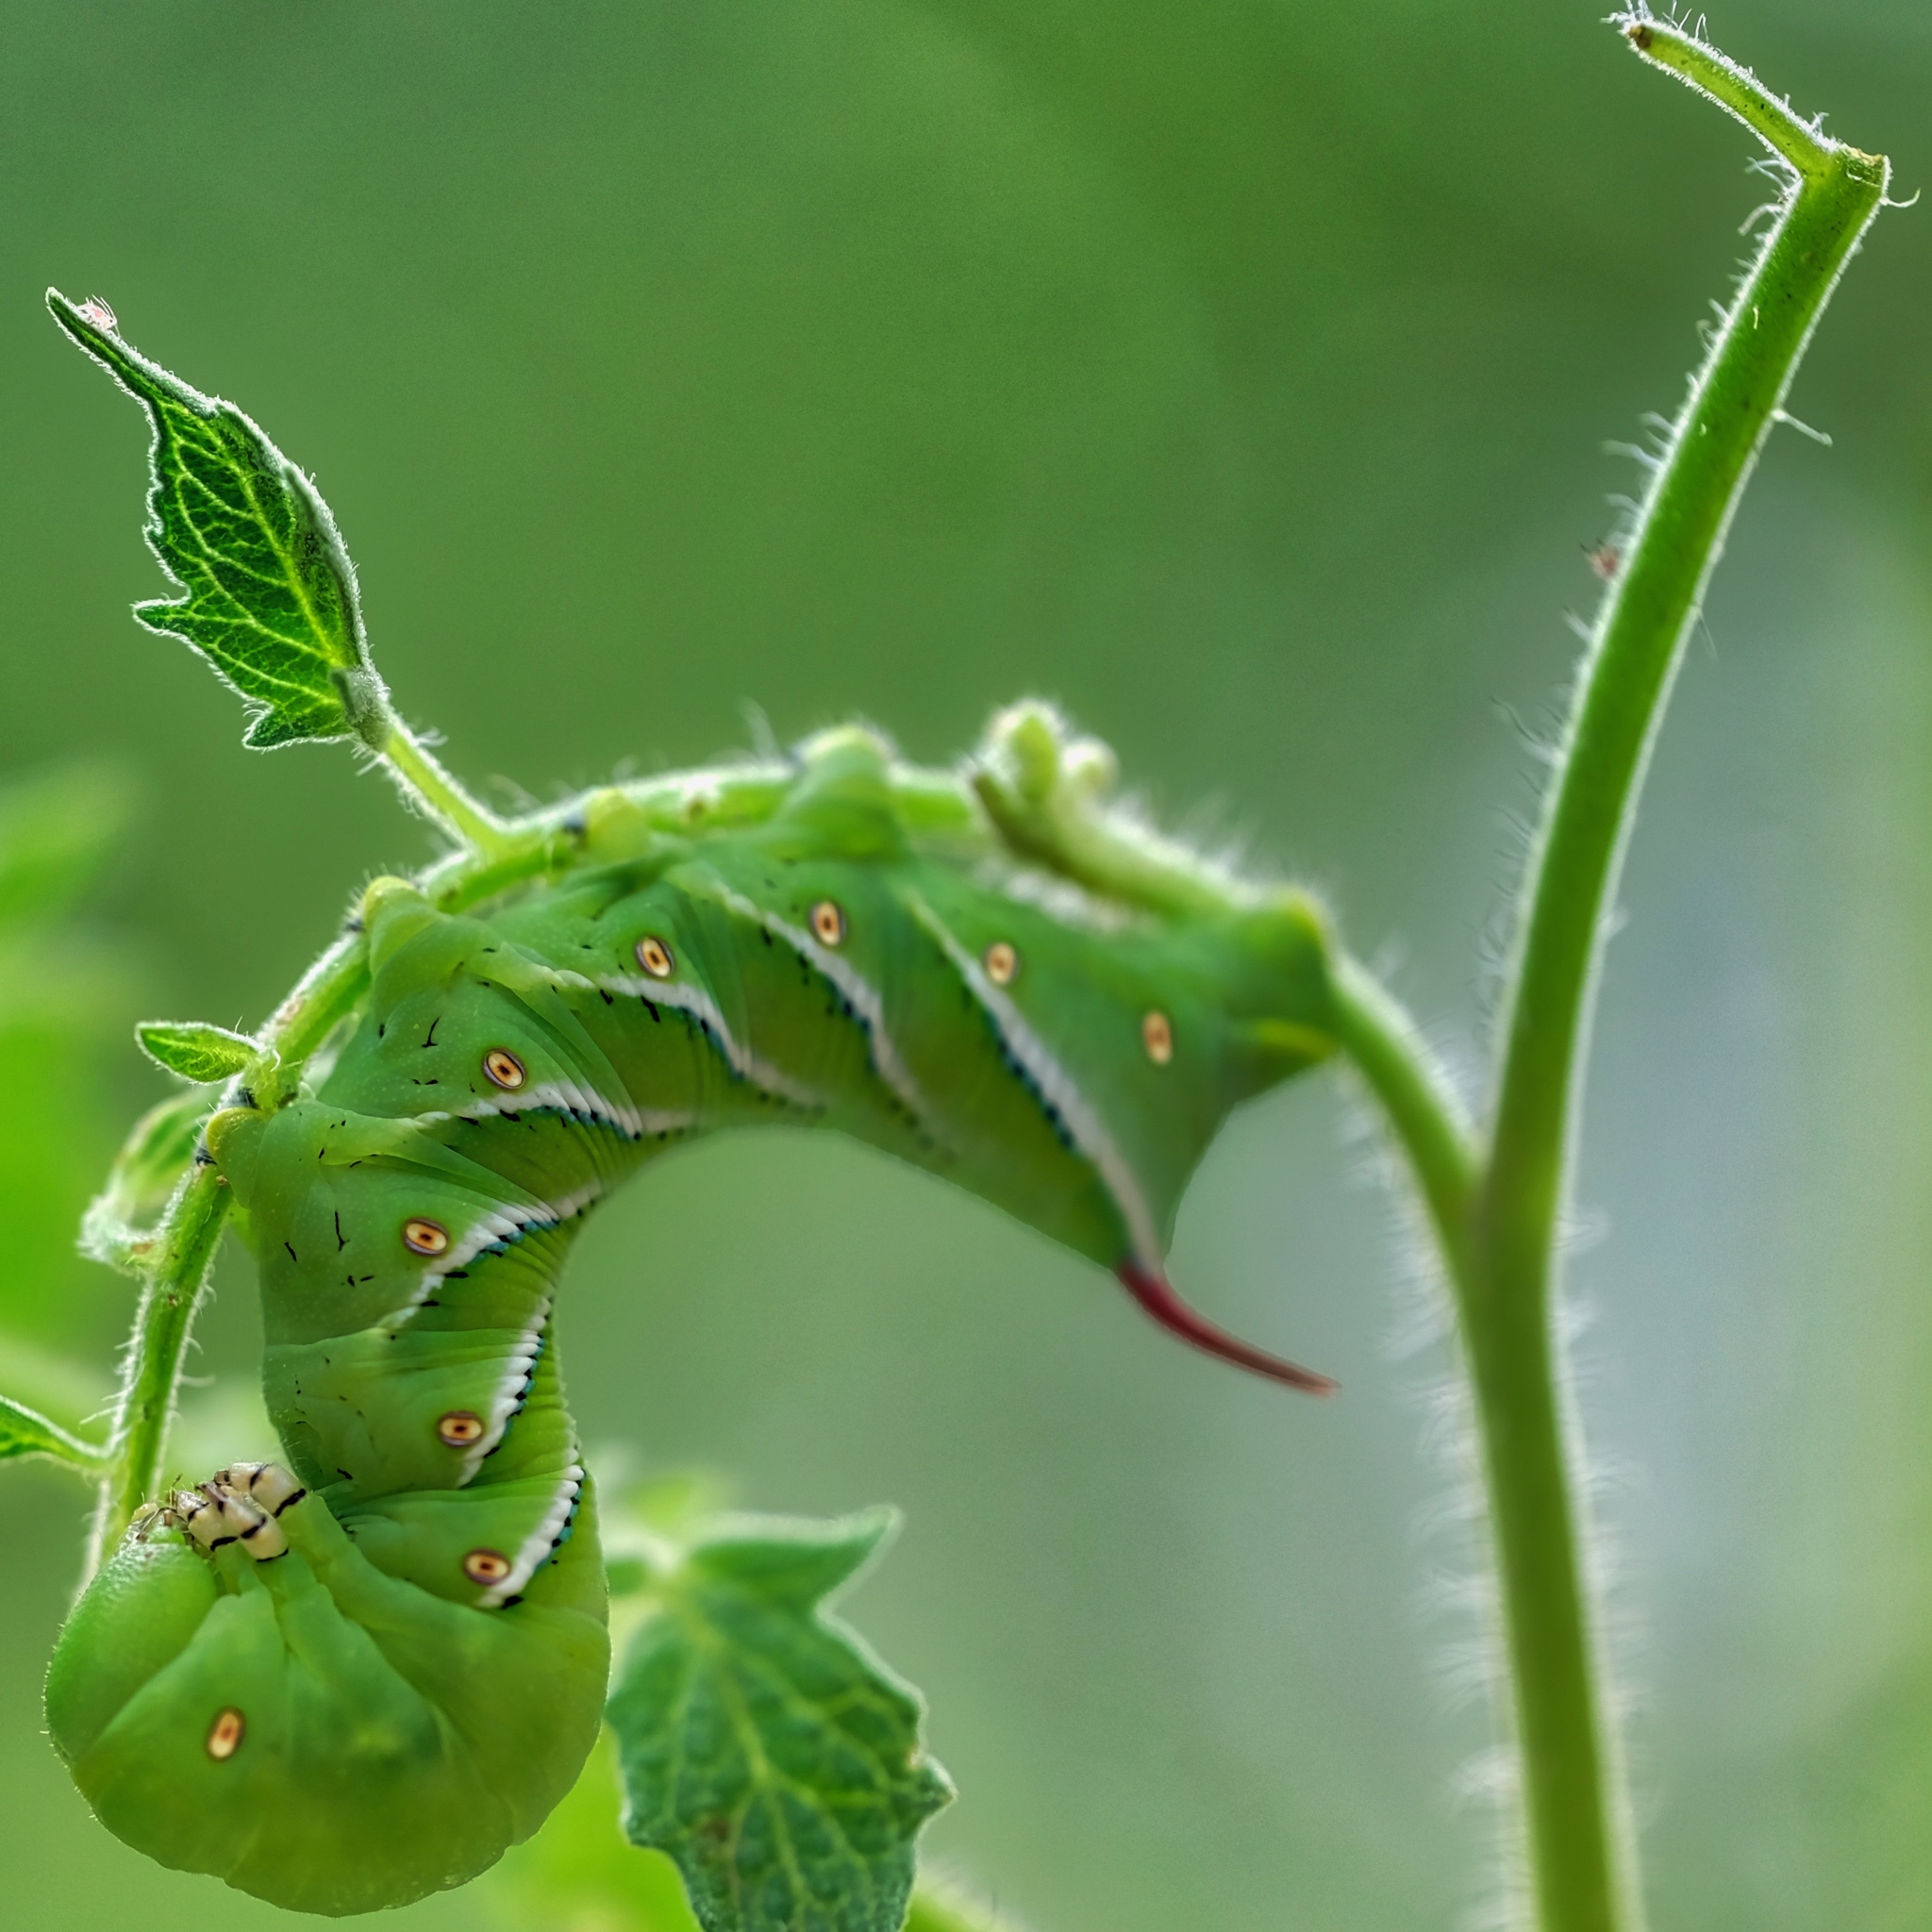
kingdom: Animalia
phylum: Arthropoda
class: Insecta
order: Lepidoptera
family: Sphingidae
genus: Manduca
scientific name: Manduca sexta
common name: Carolina sphinx
